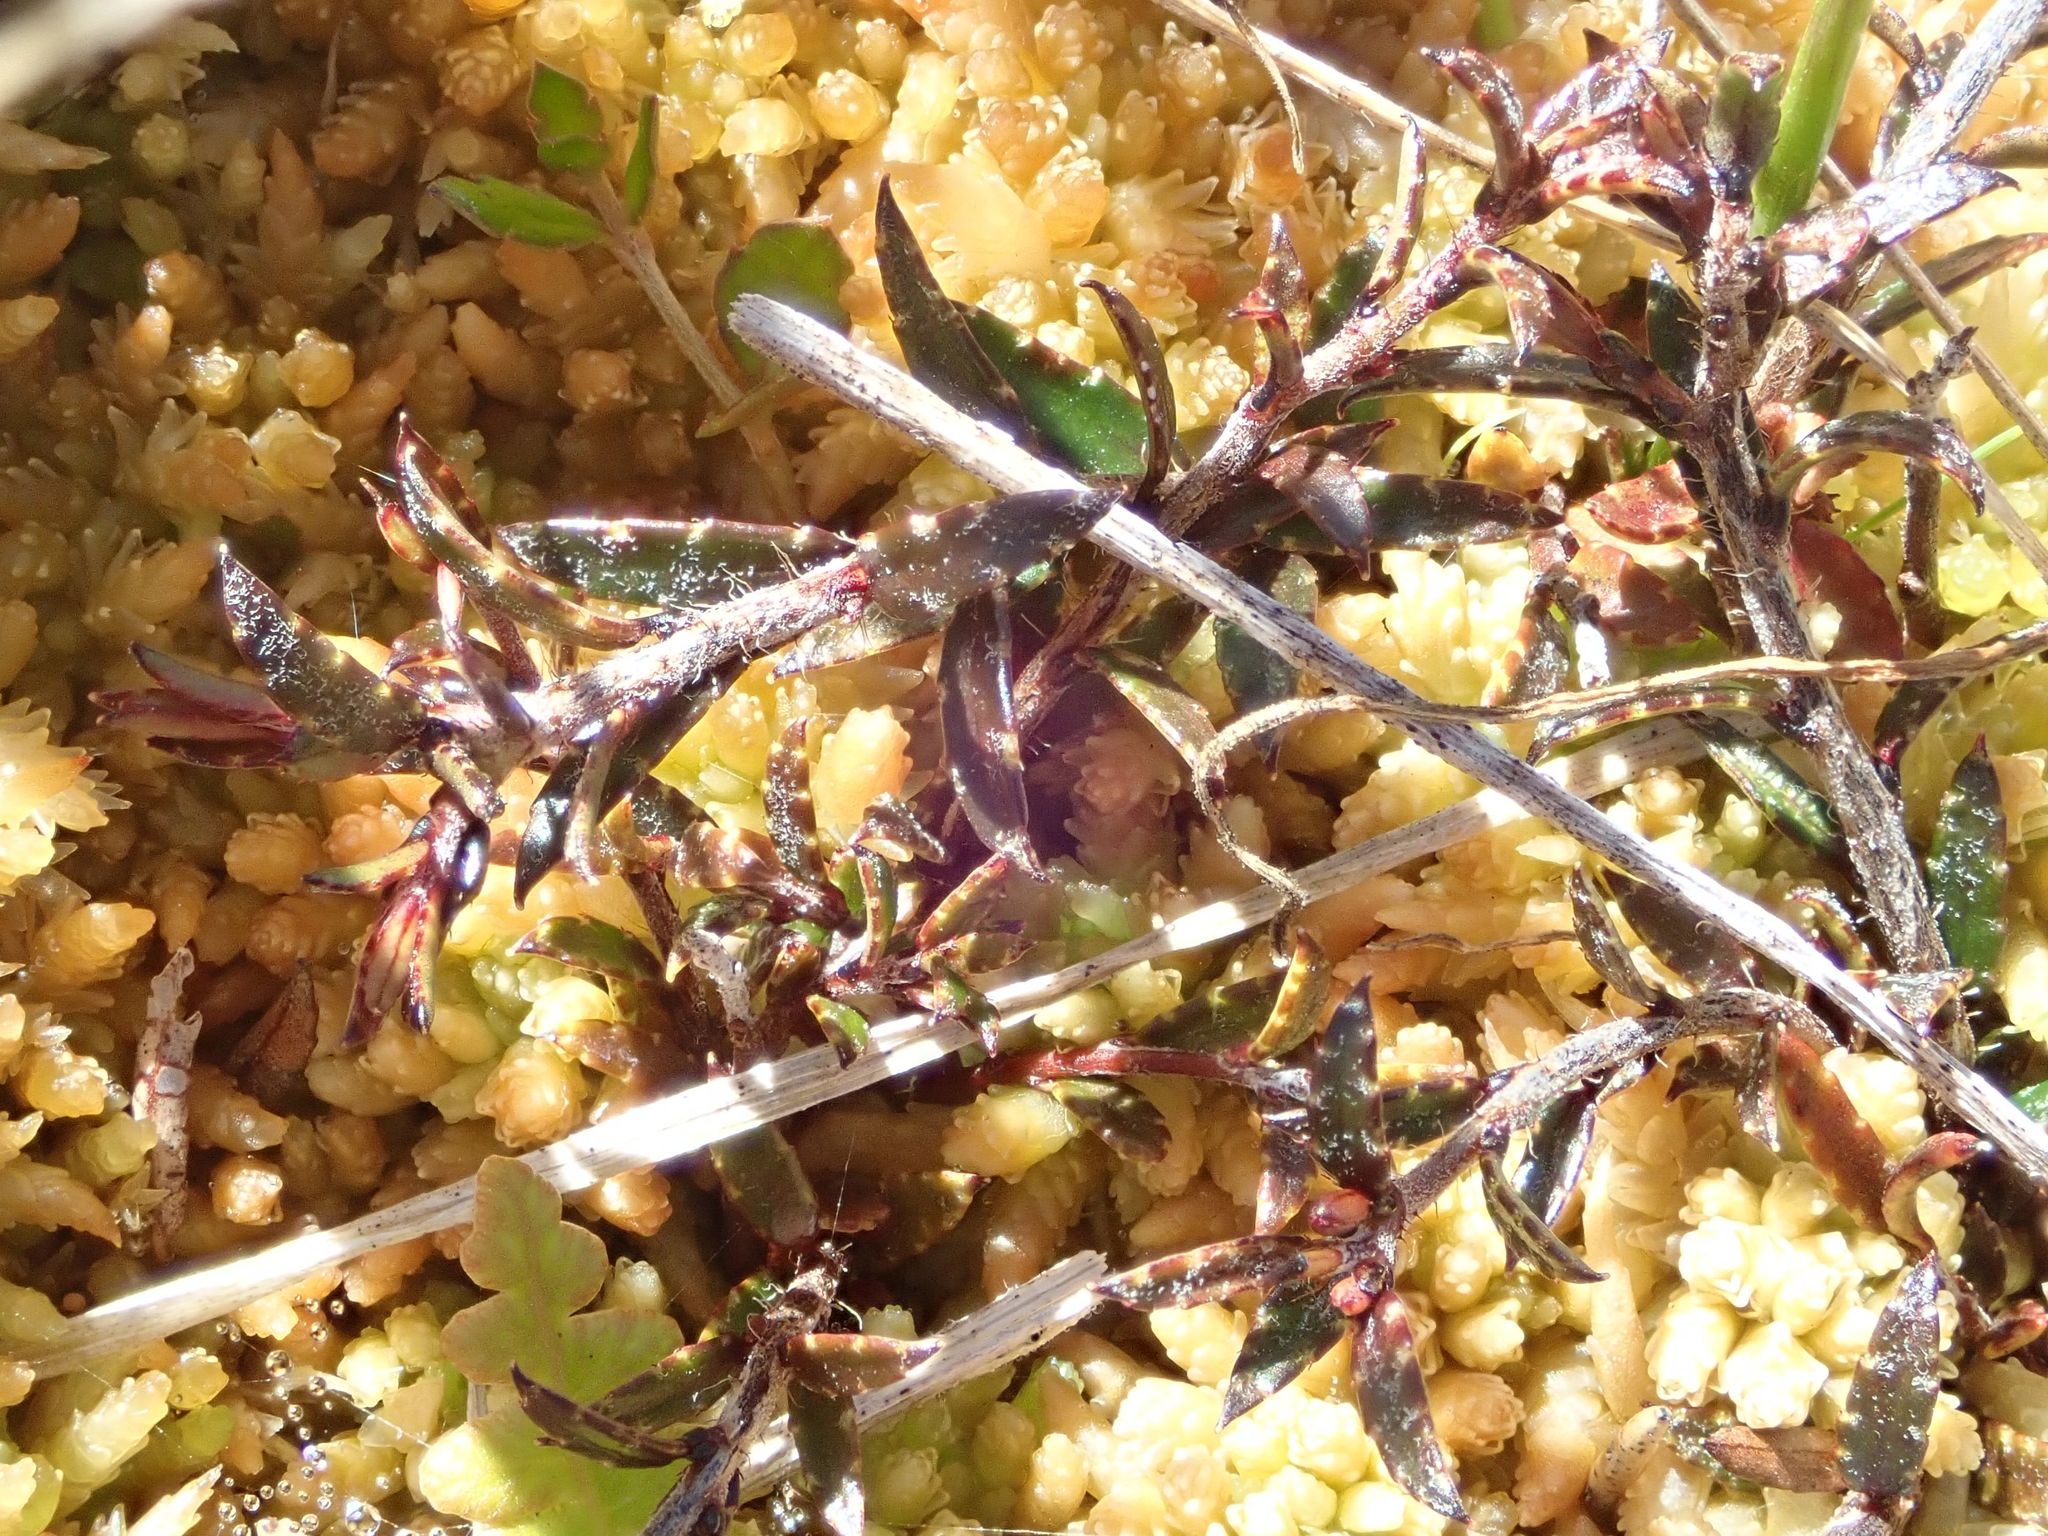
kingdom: Plantae
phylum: Tracheophyta
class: Magnoliopsida
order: Ericales
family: Ericaceae
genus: Gaultheria
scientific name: Gaultheria macrostigma
